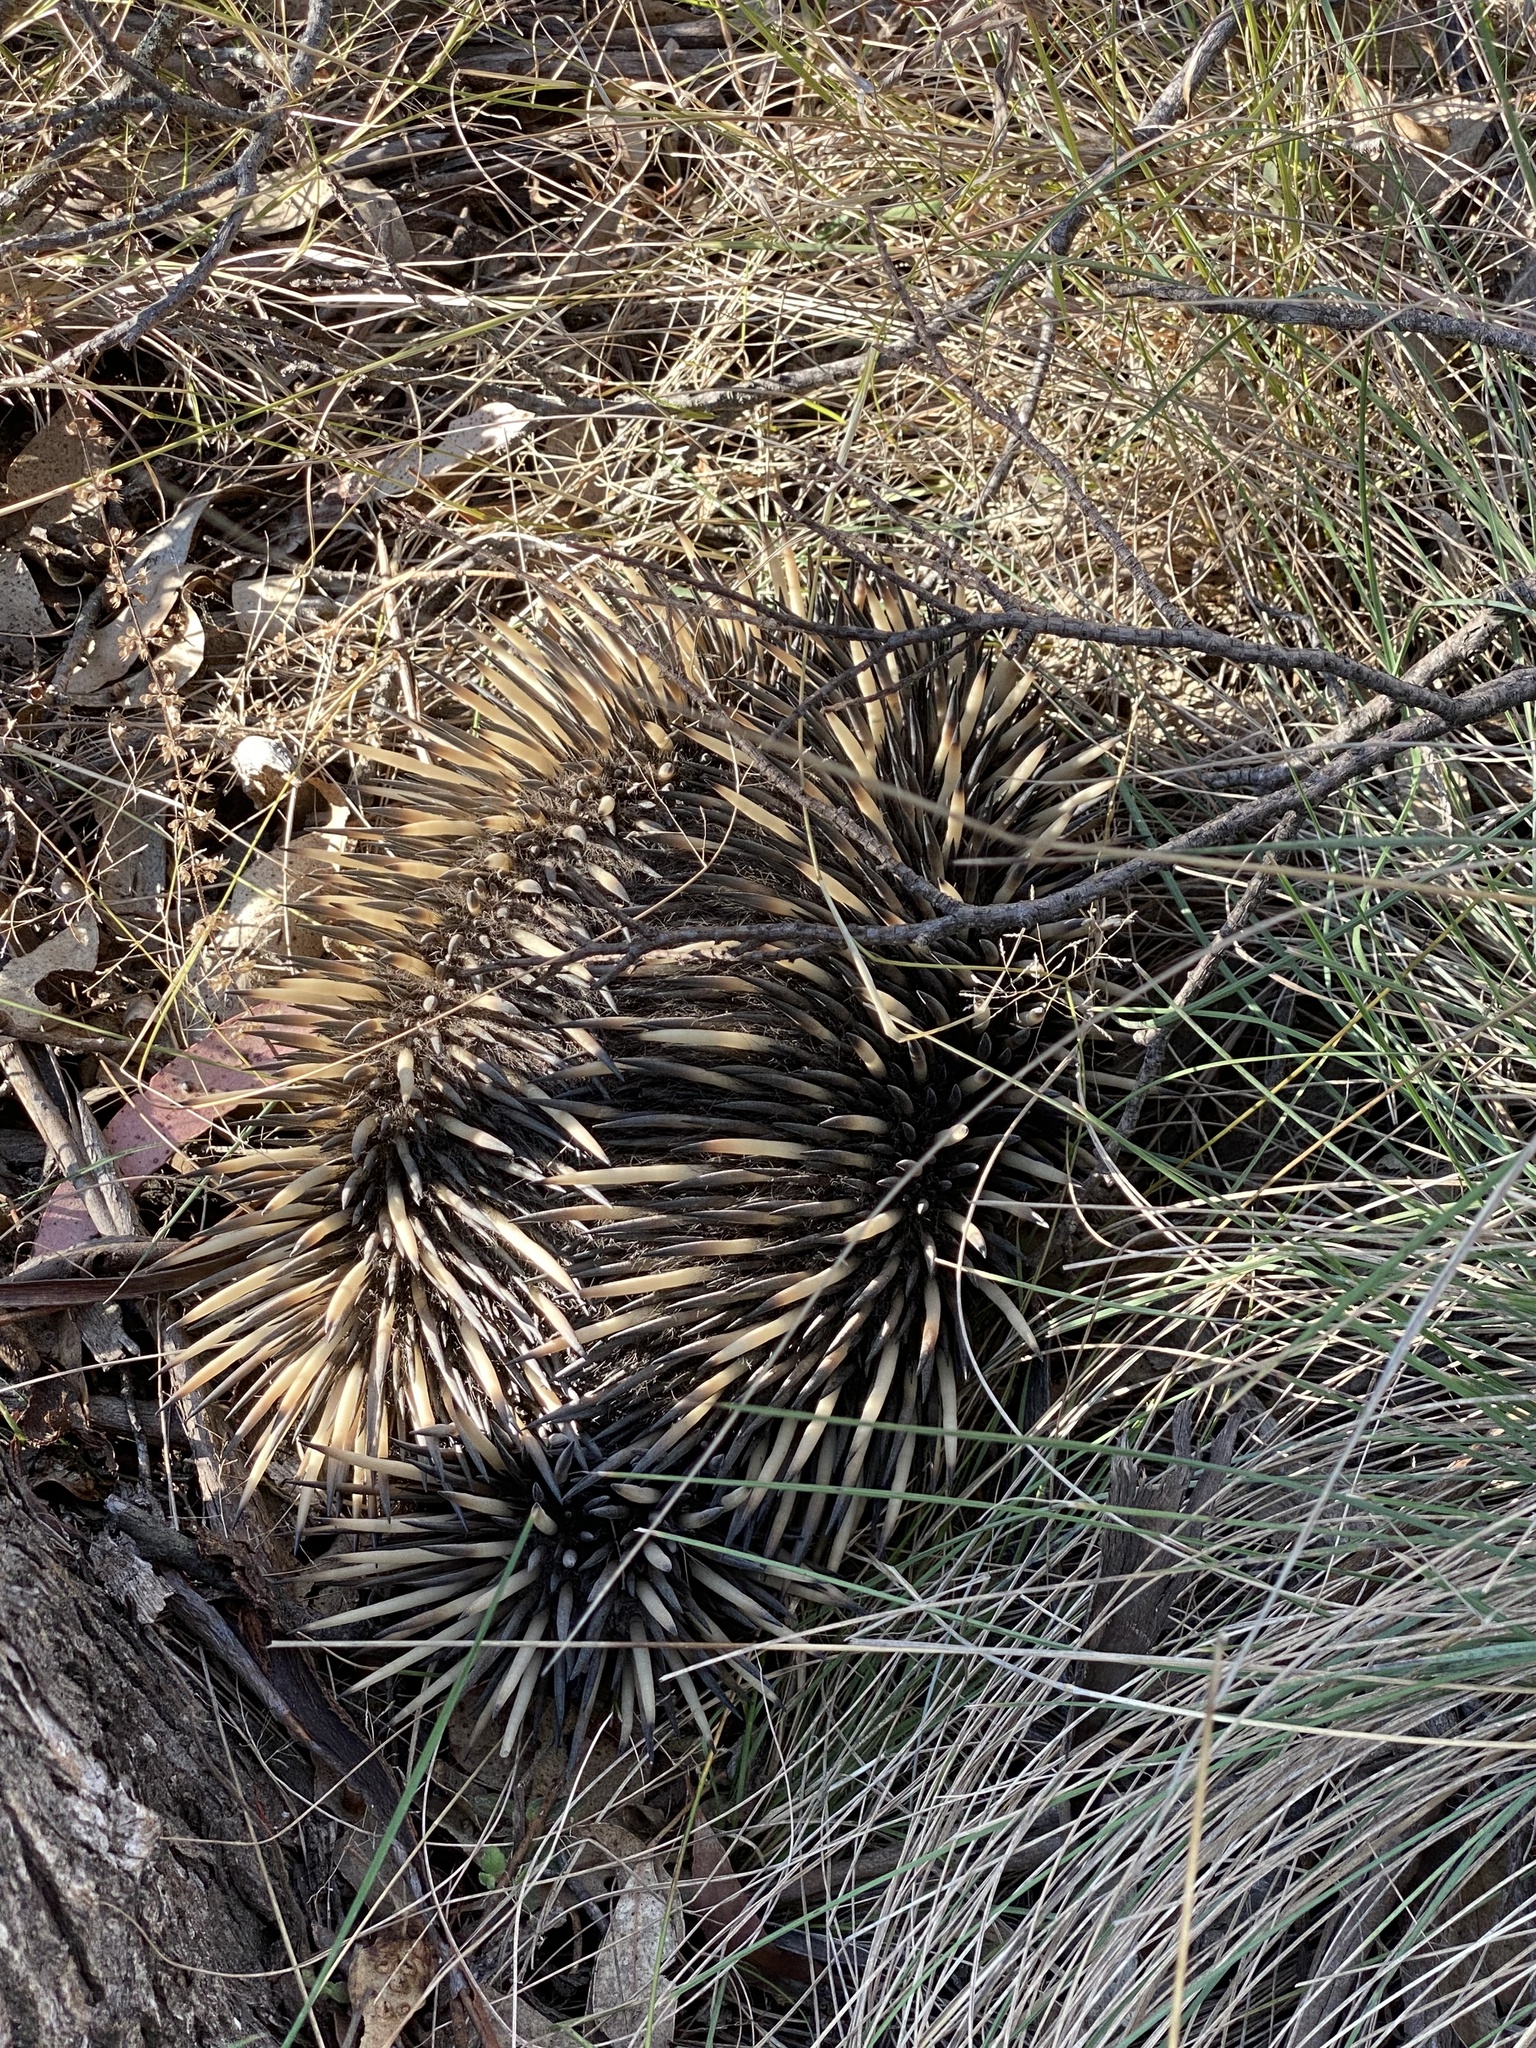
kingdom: Animalia
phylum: Chordata
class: Mammalia
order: Monotremata
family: Tachyglossidae
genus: Tachyglossus
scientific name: Tachyglossus aculeatus
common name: Short-beaked echidna
